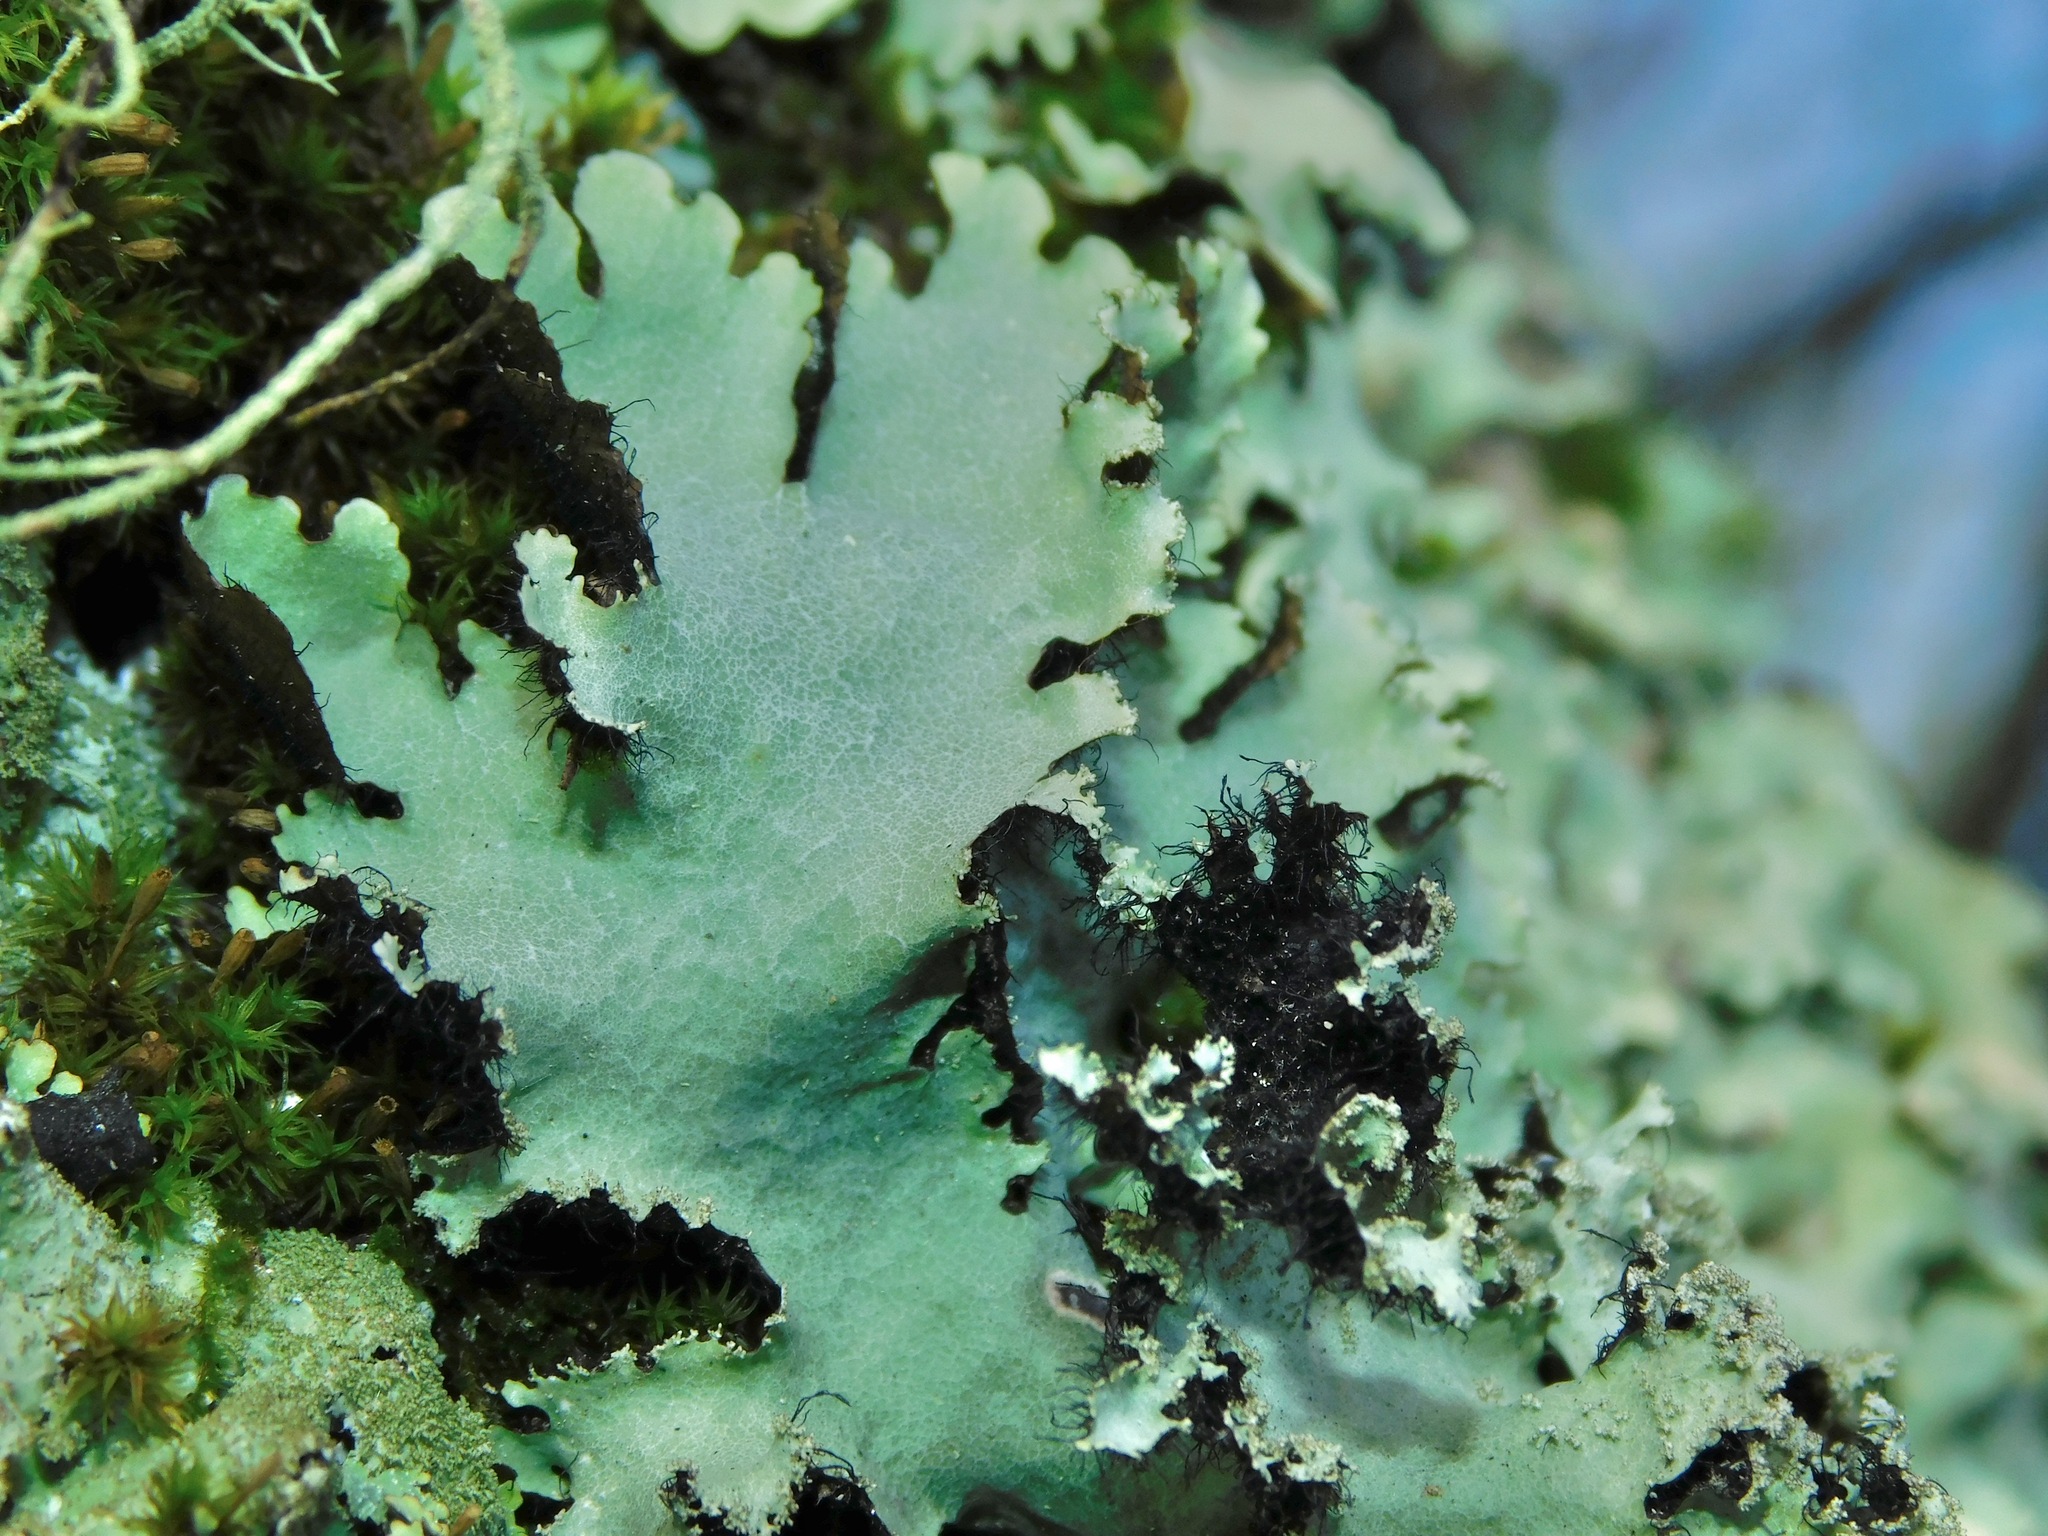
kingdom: Fungi
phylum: Ascomycota
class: Lecanoromycetes
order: Lecanorales
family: Parmeliaceae
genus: Parmotrema
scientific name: Parmotrema crinitum
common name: Salted ruffle lichen
